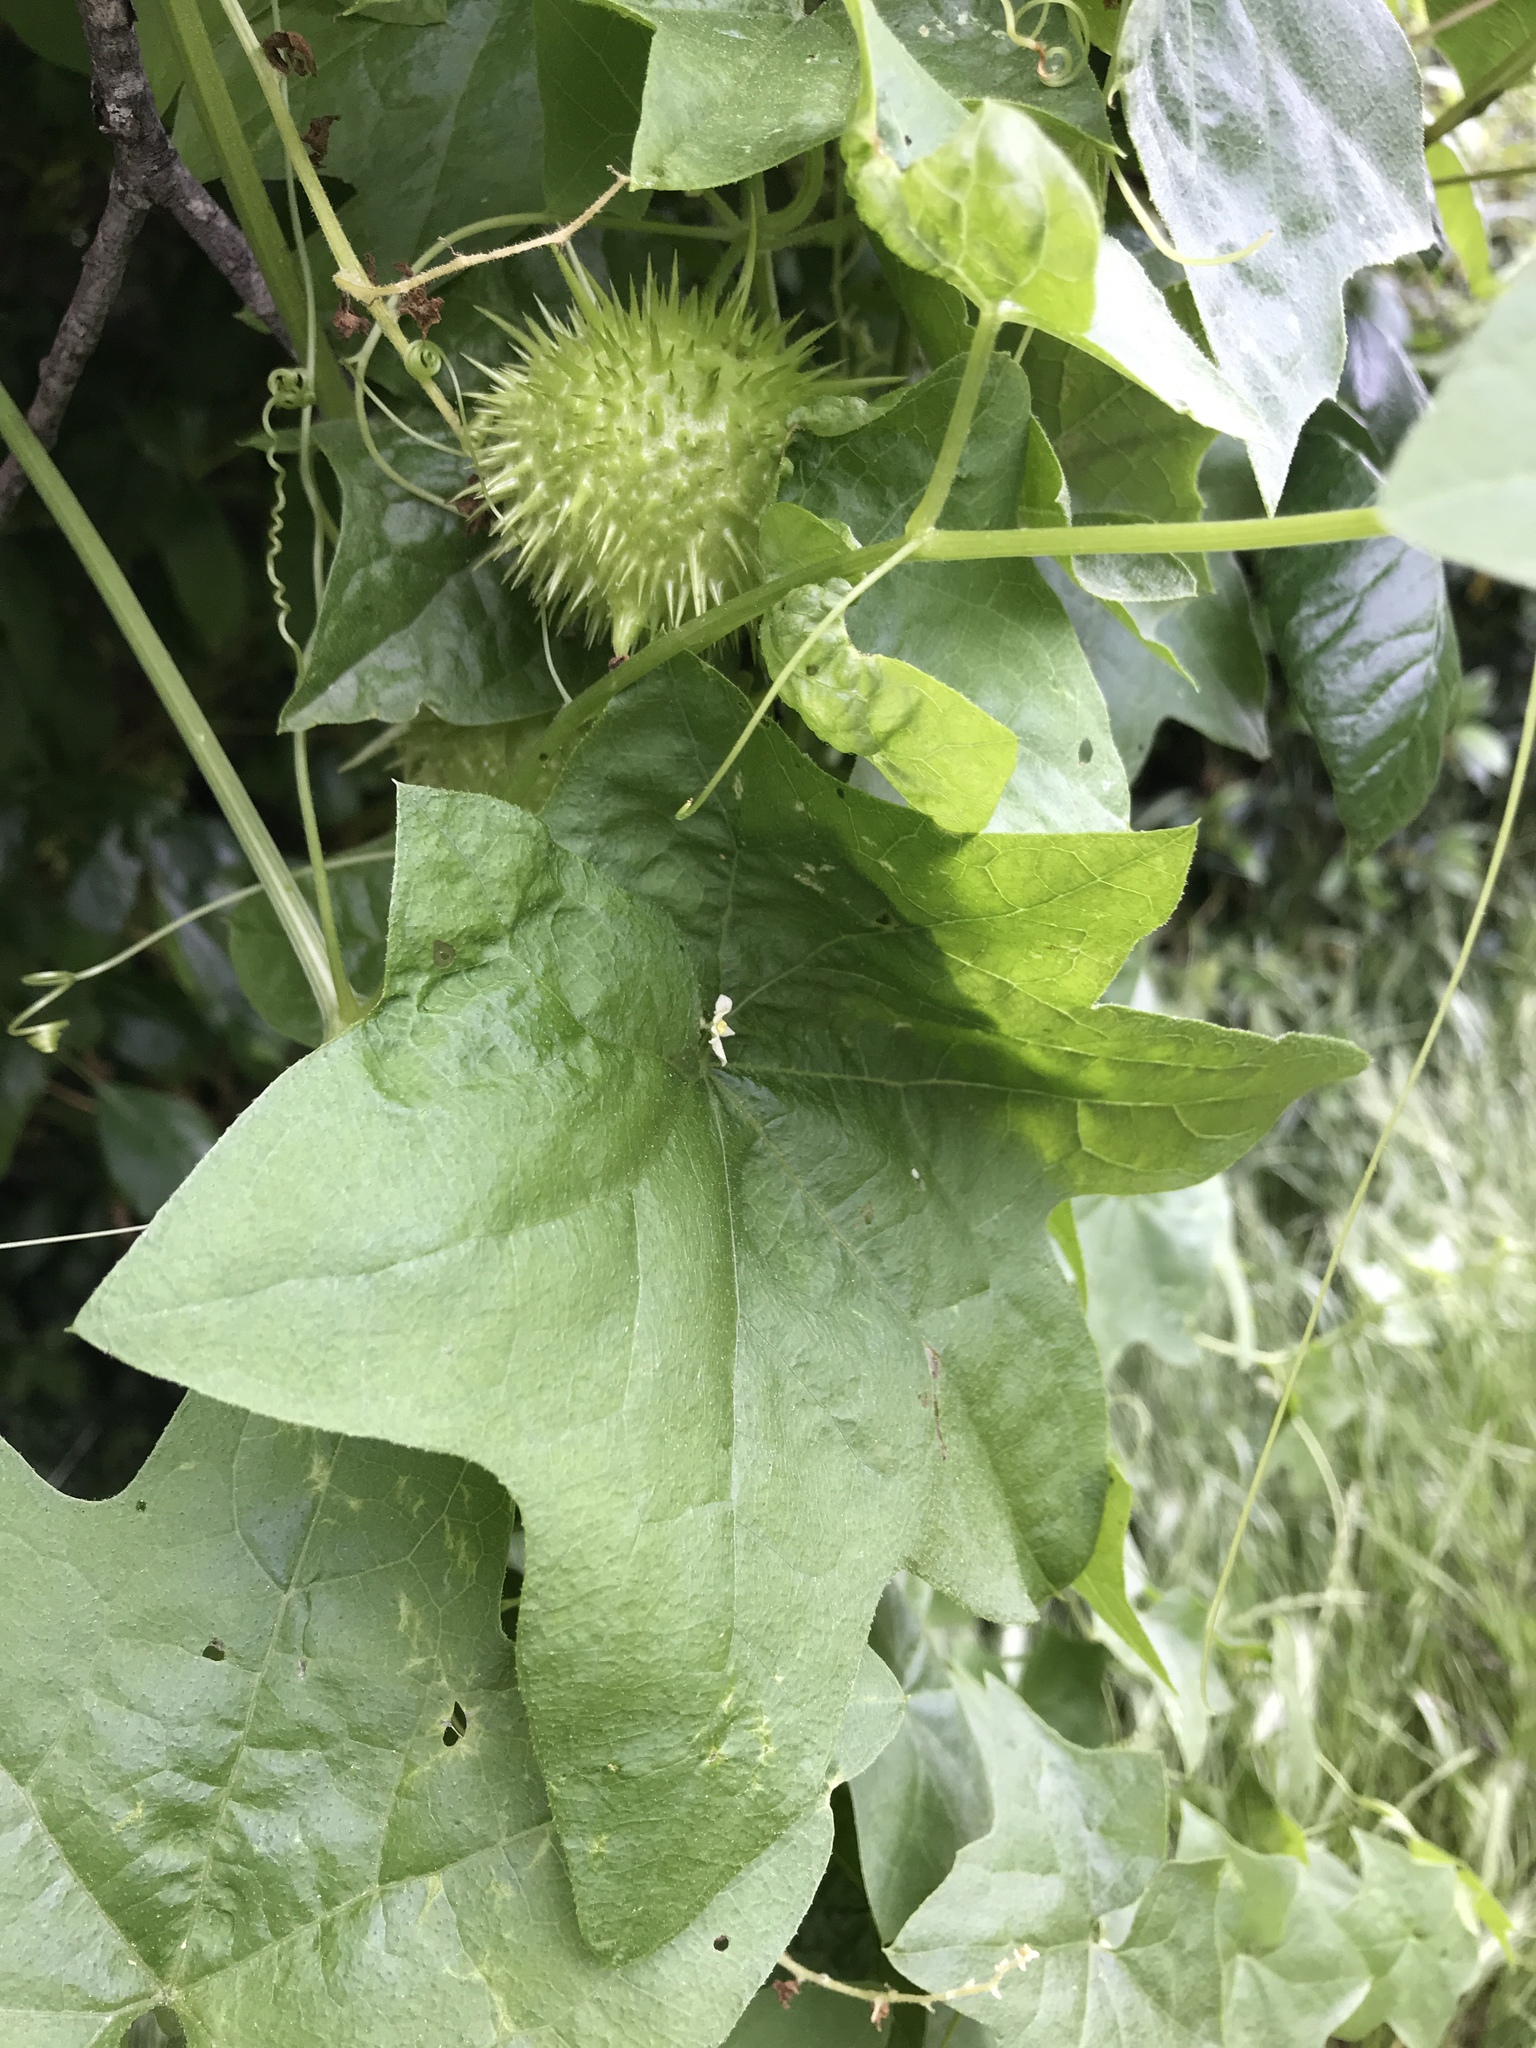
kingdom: Plantae
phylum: Tracheophyta
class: Magnoliopsida
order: Cucurbitales
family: Cucurbitaceae
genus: Marah
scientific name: Marah fabacea
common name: California manroot
